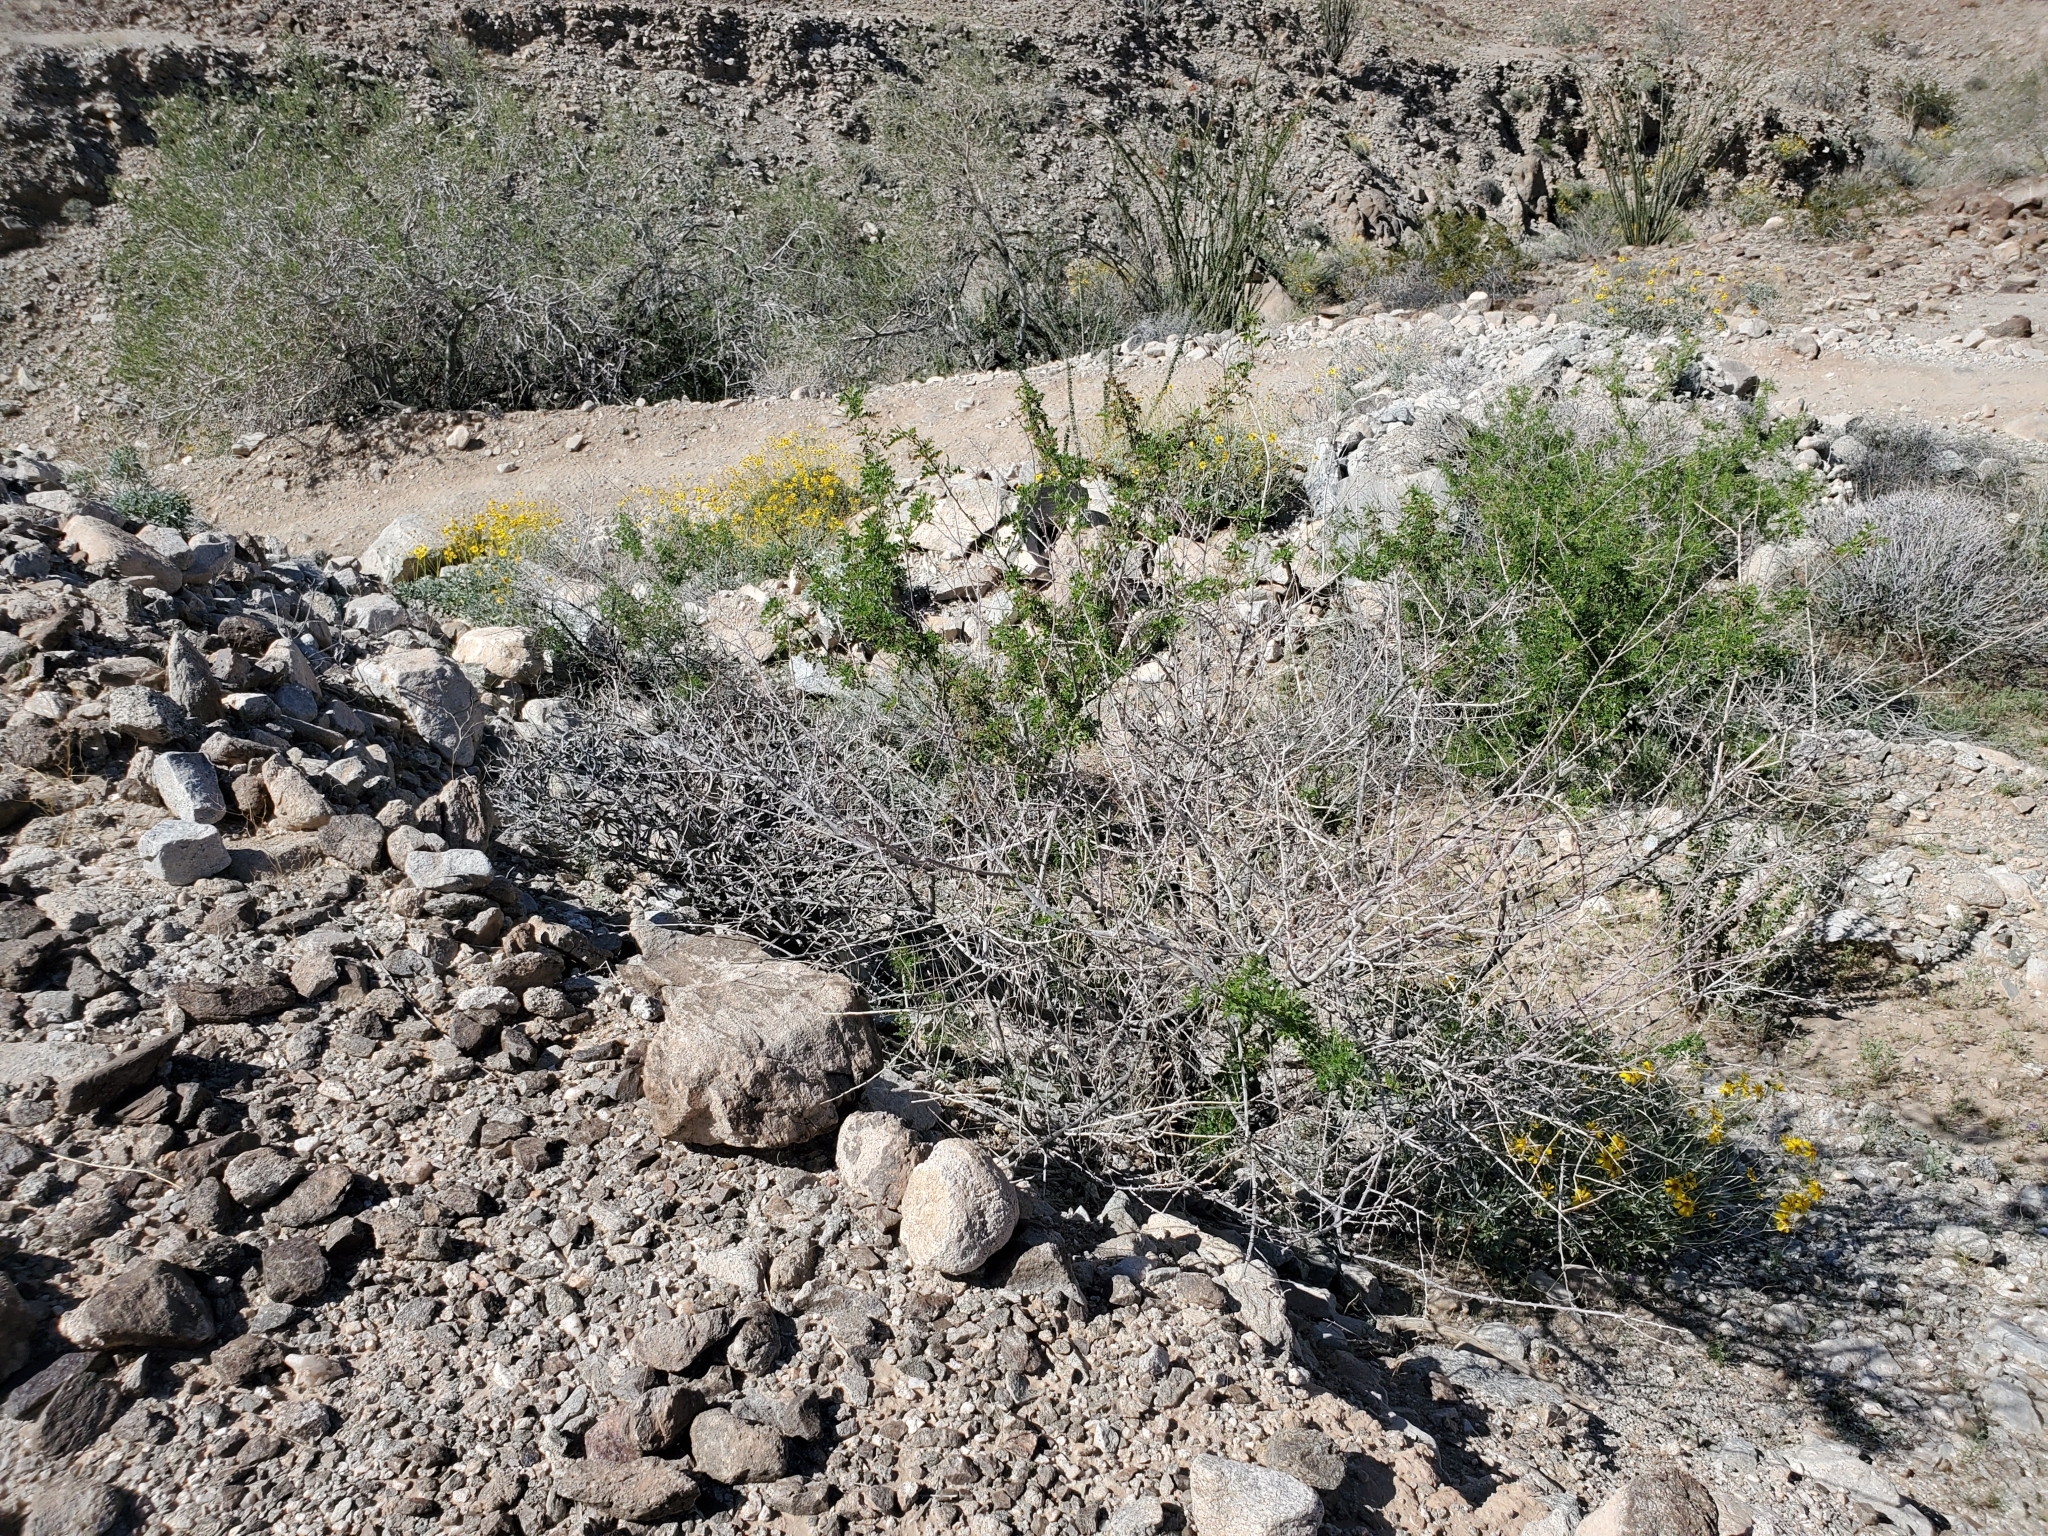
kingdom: Plantae
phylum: Tracheophyta
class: Magnoliopsida
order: Fabales
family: Fabaceae
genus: Senegalia
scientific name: Senegalia greggii
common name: Texas-mimosa
